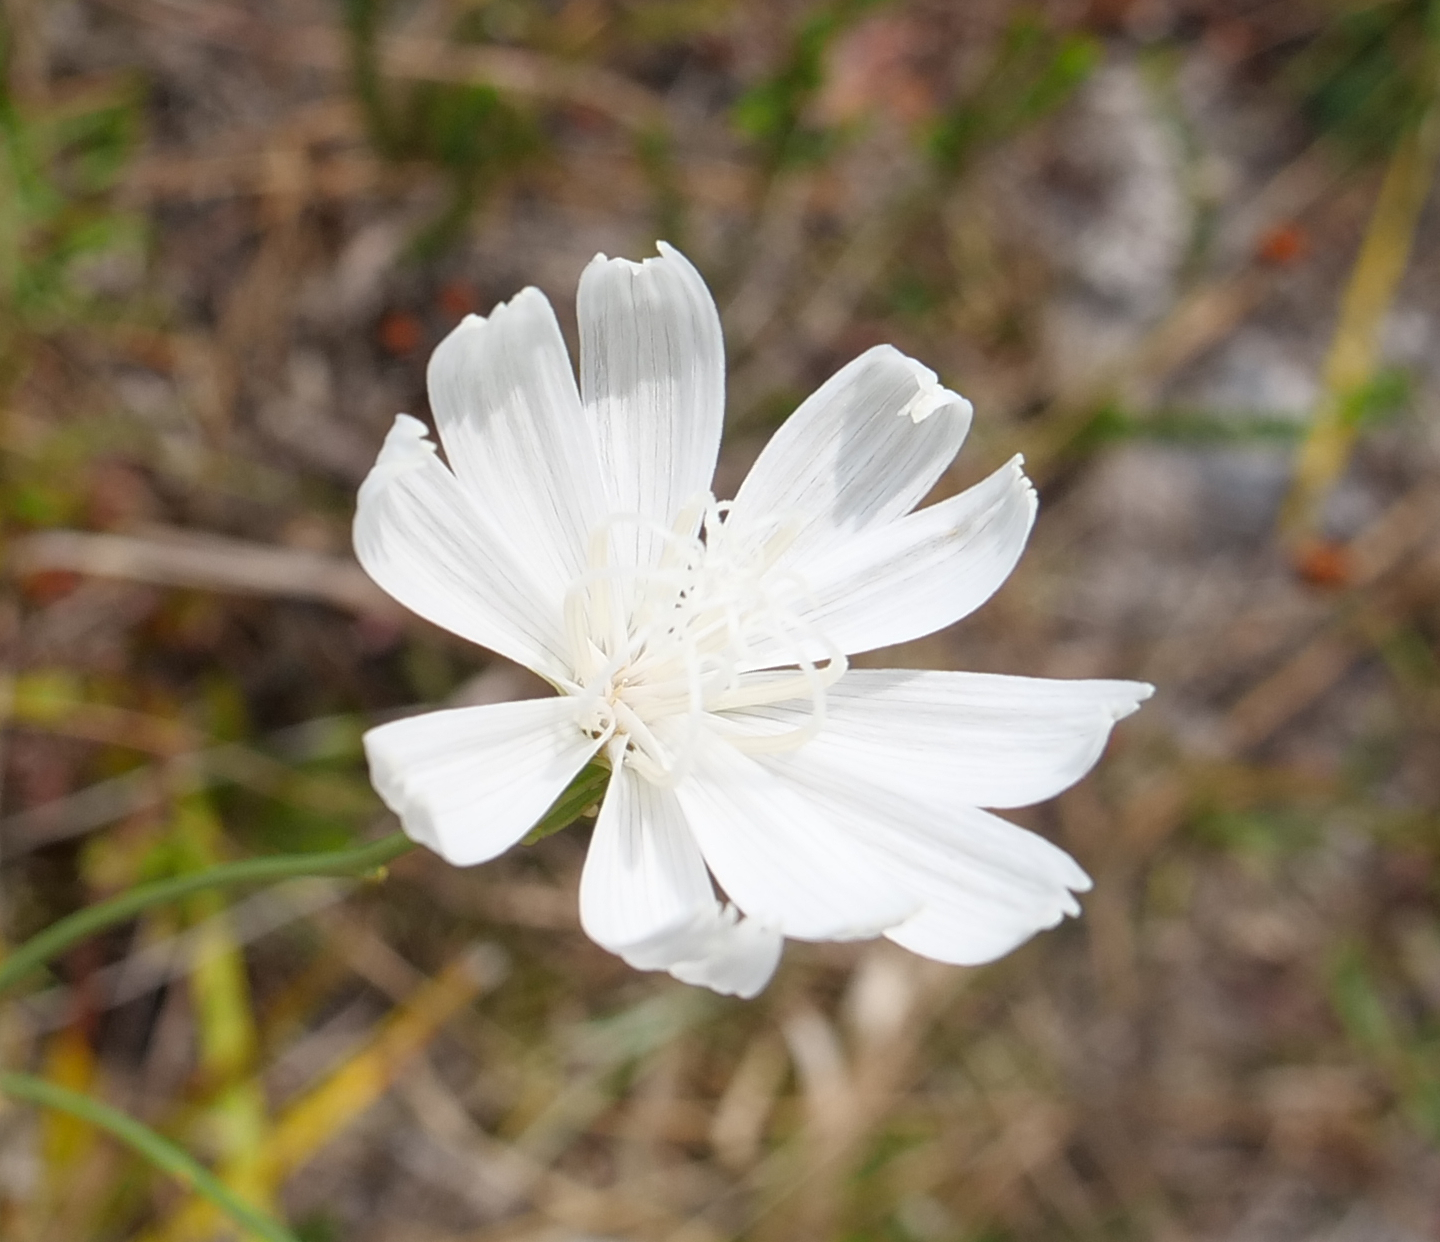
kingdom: Plantae
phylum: Tracheophyta
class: Magnoliopsida
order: Asterales
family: Asteraceae
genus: Lygodesmia
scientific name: Lygodesmia aphylla
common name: Rose-rush
